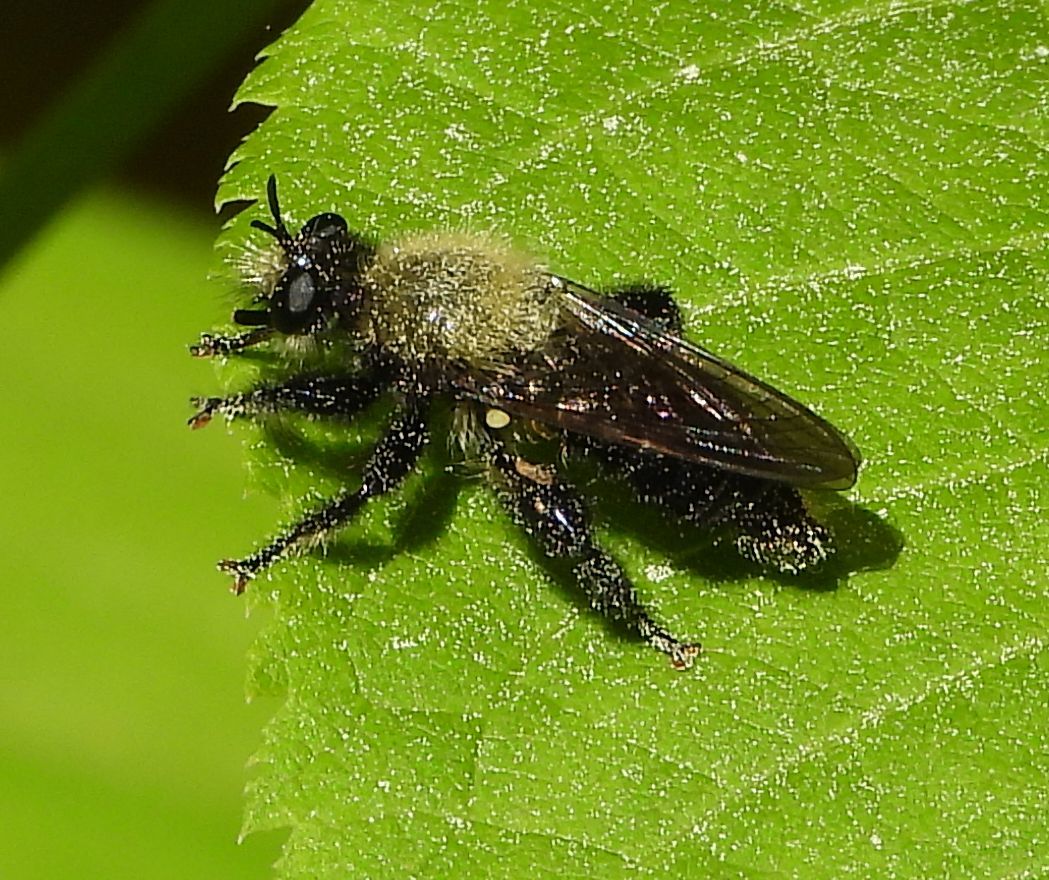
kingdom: Animalia
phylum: Arthropoda
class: Insecta
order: Diptera
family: Asilidae
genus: Laphria
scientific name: Laphria flavicollis
